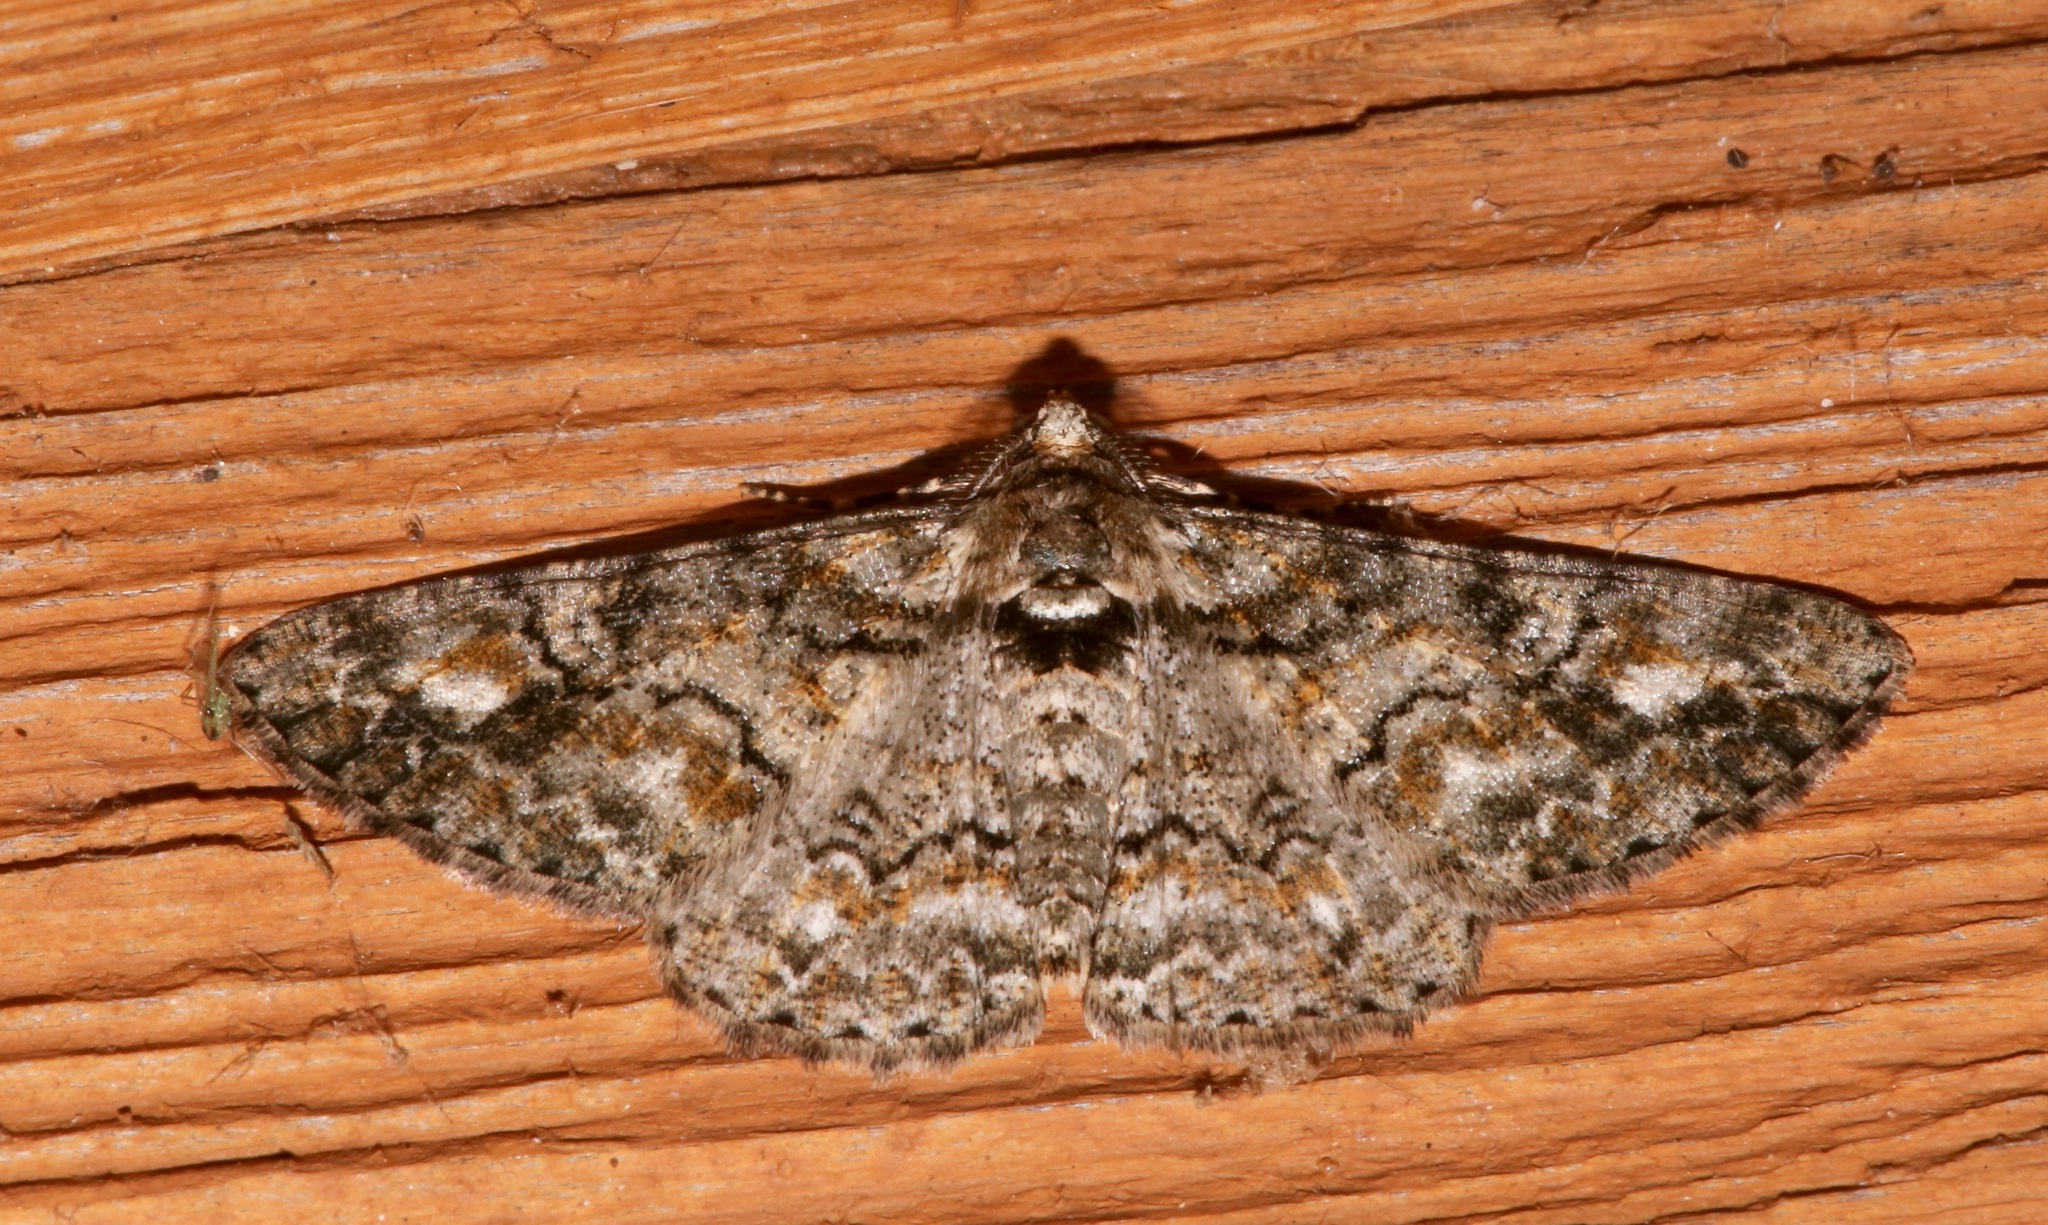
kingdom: Animalia
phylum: Arthropoda
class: Insecta
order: Lepidoptera
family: Geometridae
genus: Cleora
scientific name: Cleora sublunaria
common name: Double-lined gray
